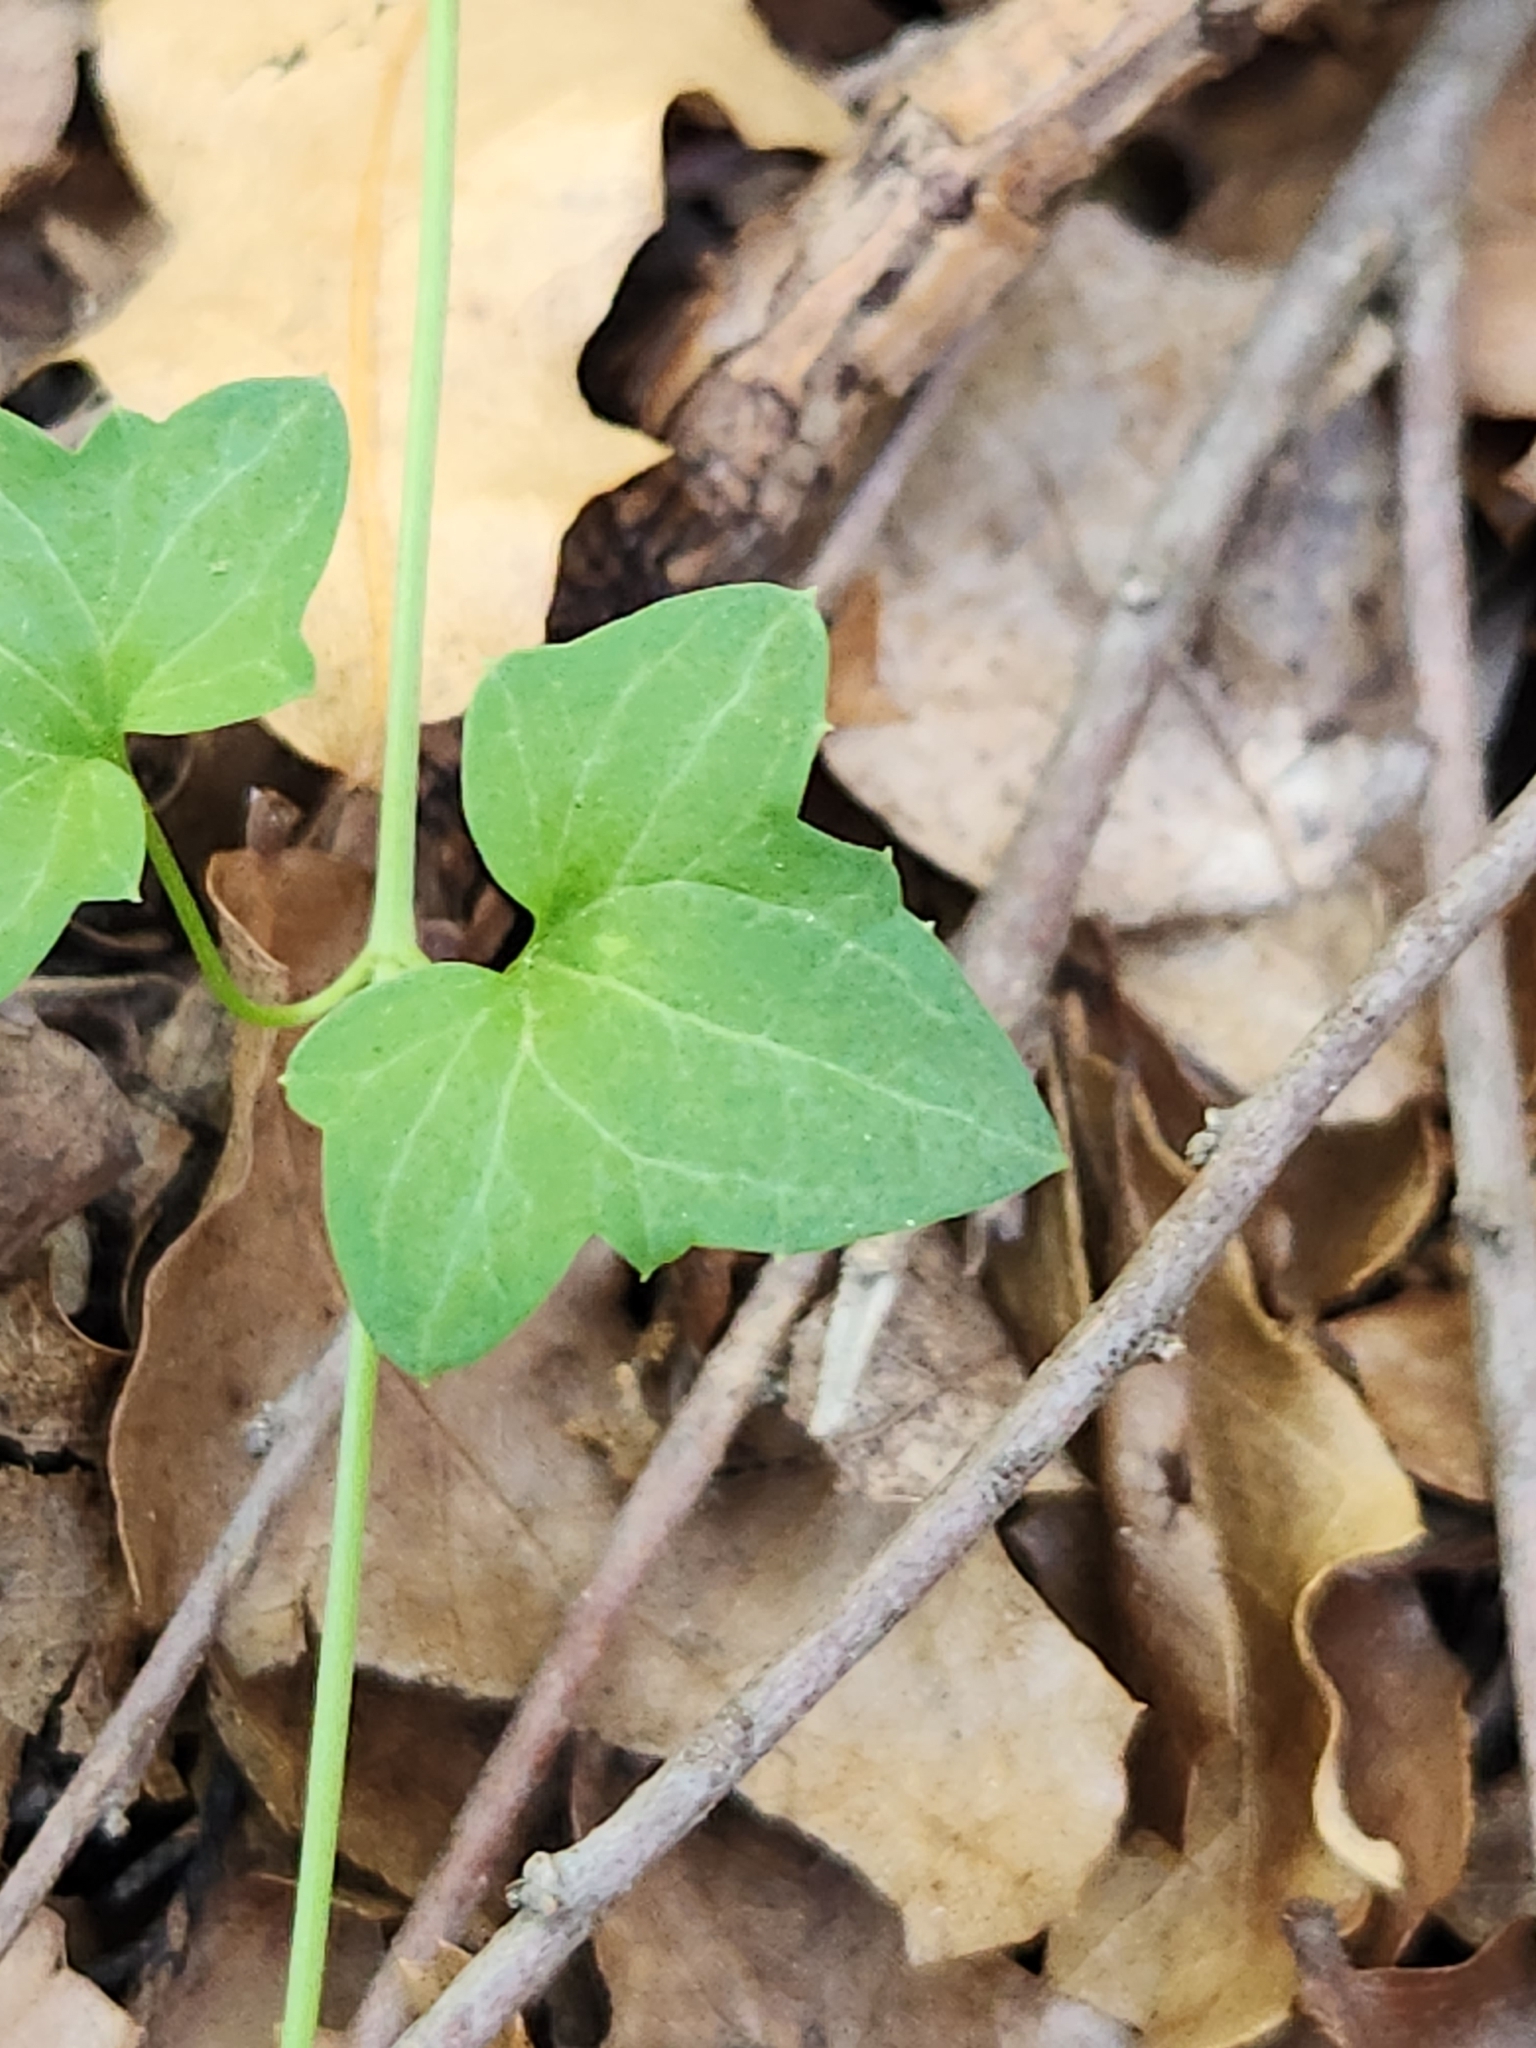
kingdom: Plantae
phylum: Tracheophyta
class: Magnoliopsida
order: Lamiales
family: Plantaginaceae
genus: Maurandella
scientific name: Maurandella antirrhiniflora
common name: Violet twining-snapdragon
